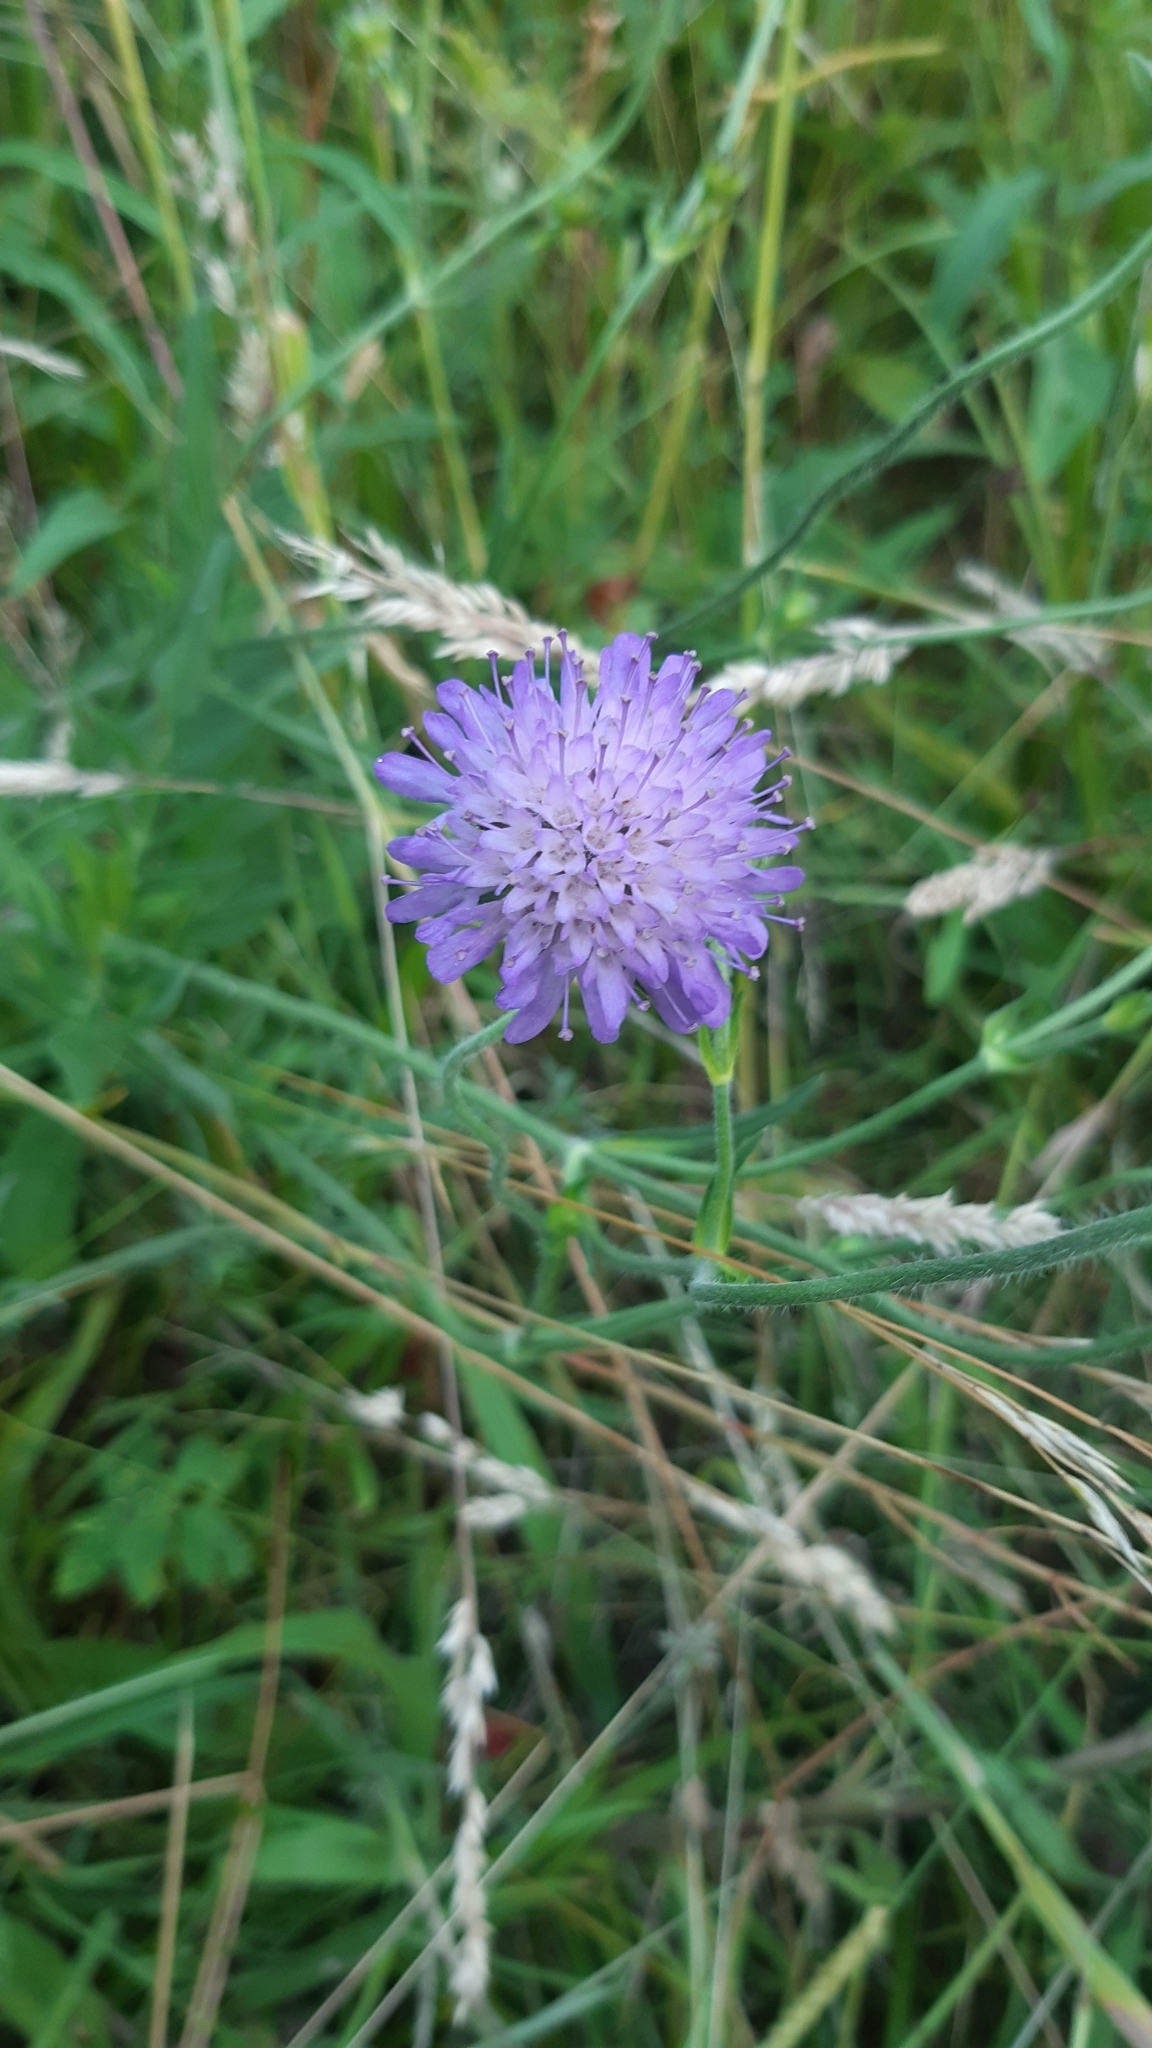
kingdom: Plantae
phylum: Tracheophyta
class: Magnoliopsida
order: Dipsacales
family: Caprifoliaceae
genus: Knautia
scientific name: Knautia arvensis
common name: Field scabiosa
